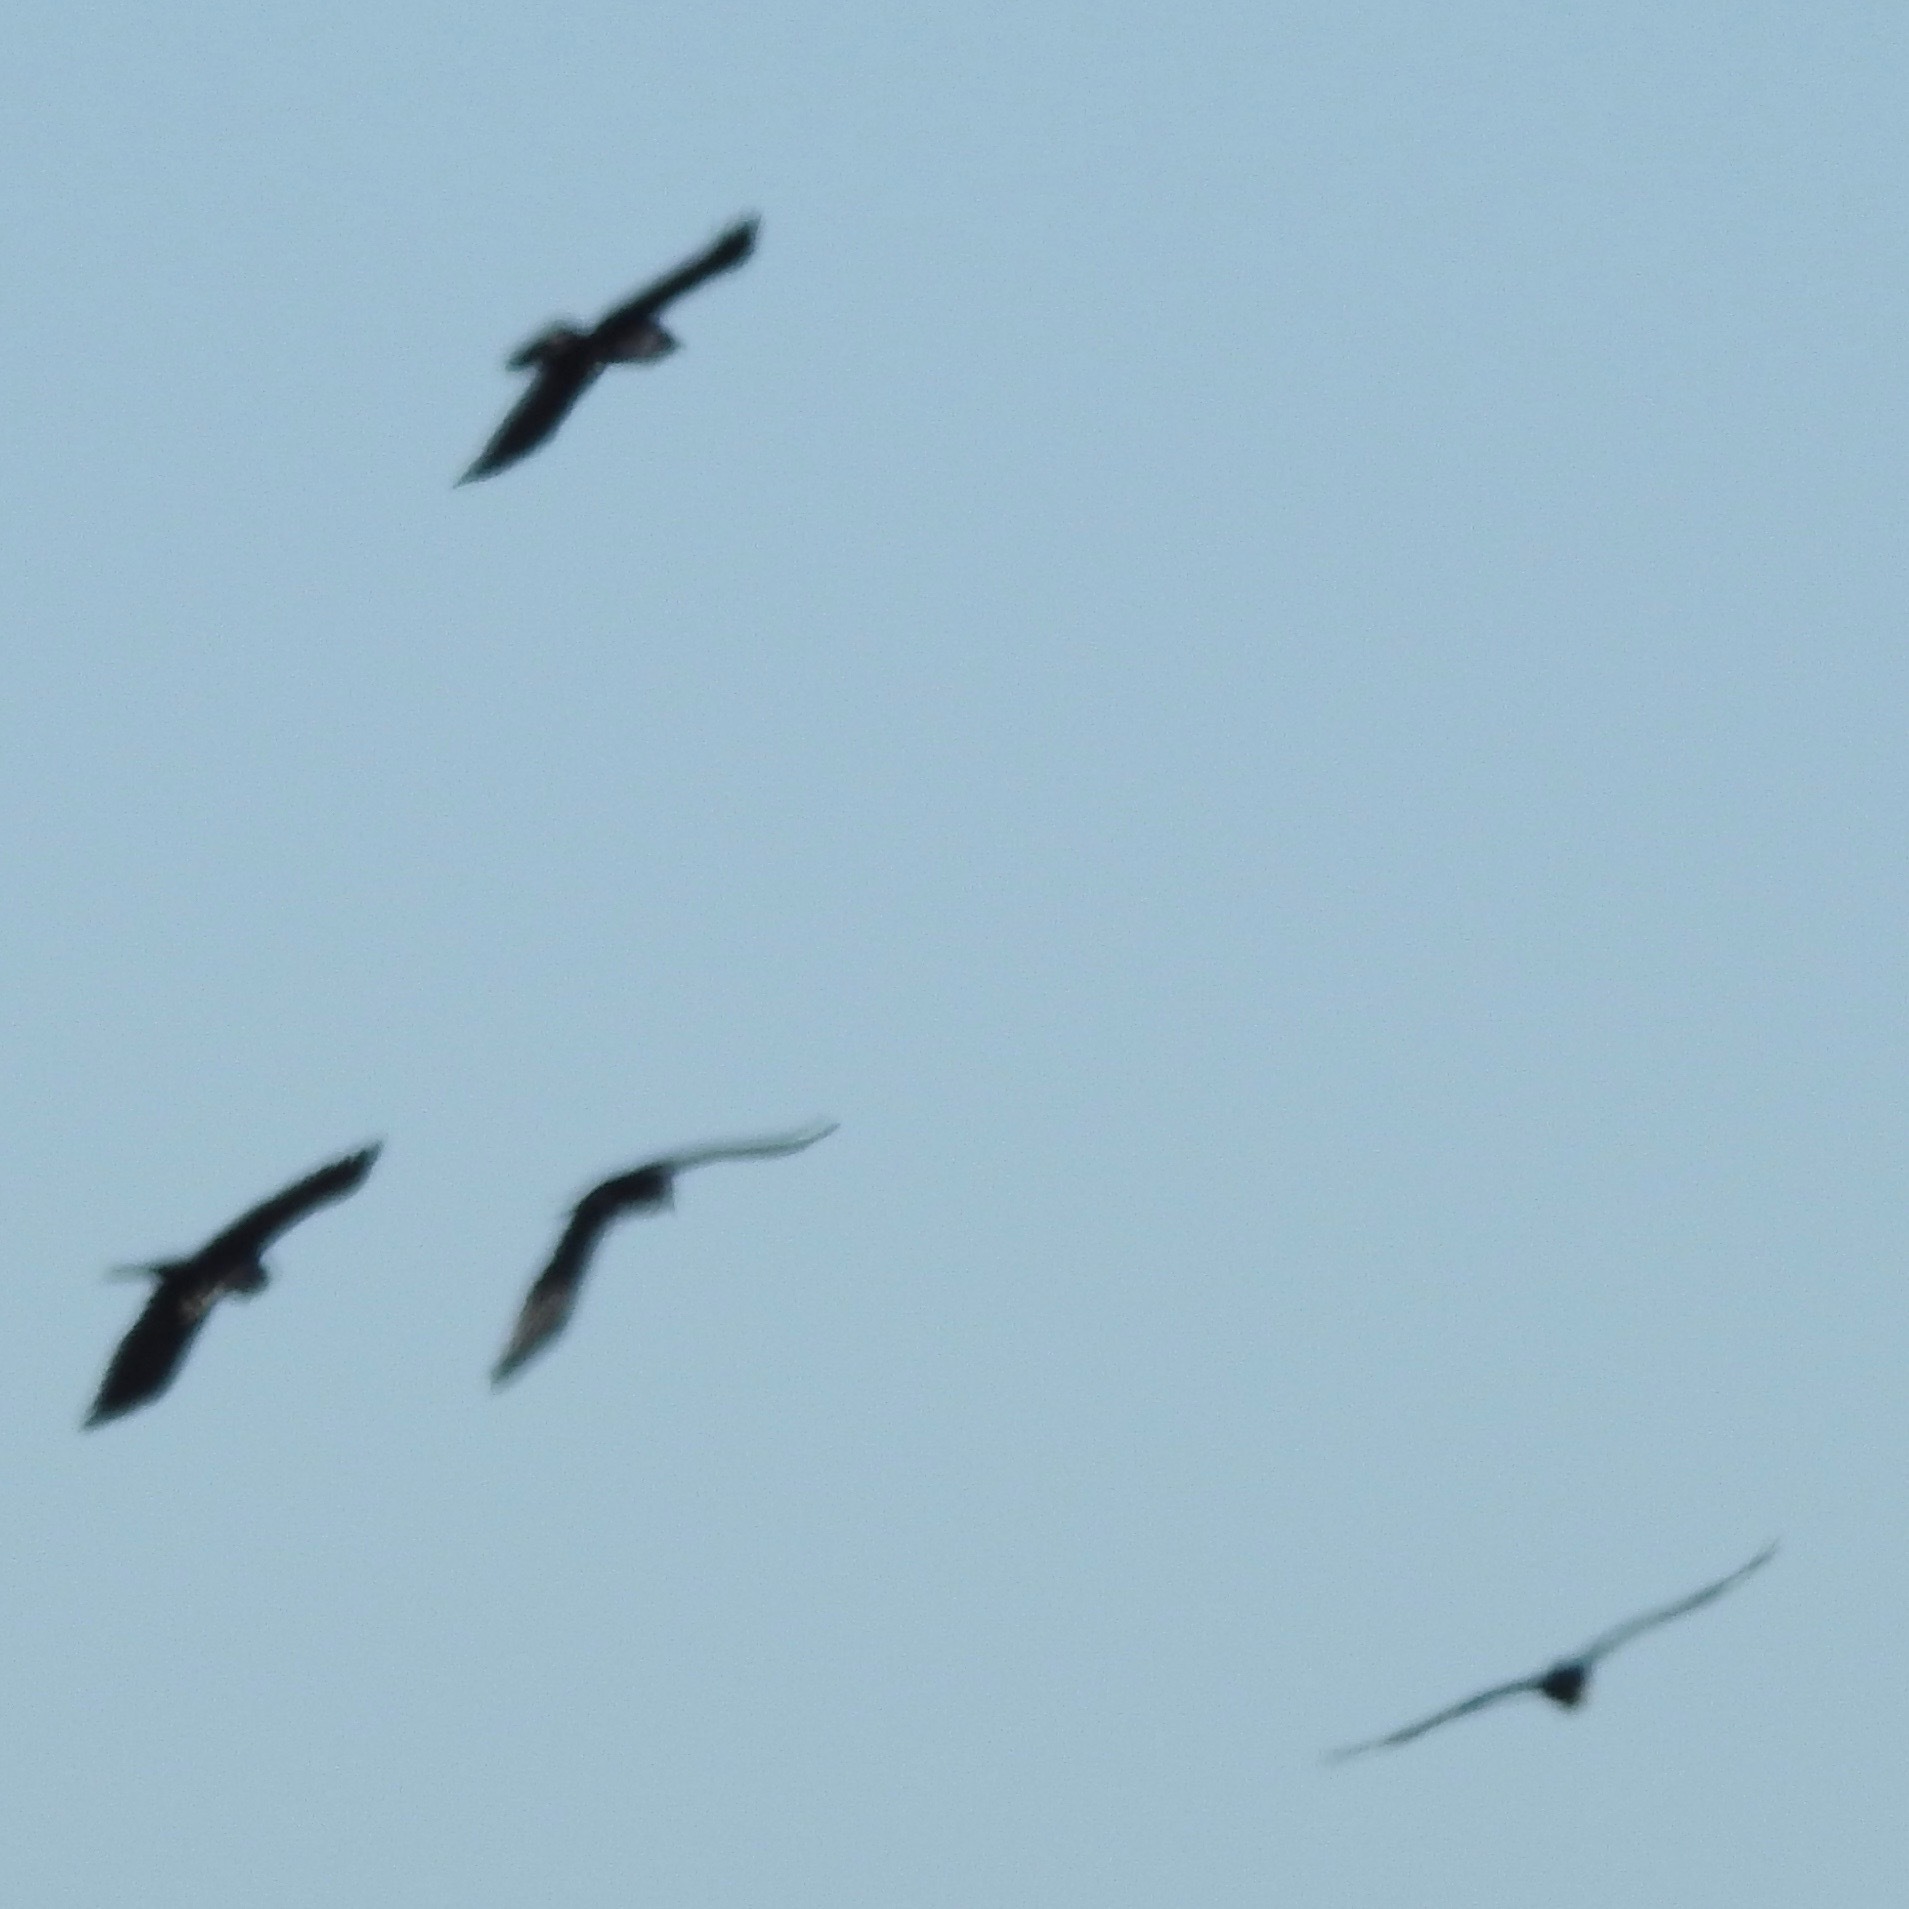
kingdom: Animalia
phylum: Chordata
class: Aves
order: Passeriformes
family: Corvidae
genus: Corvus
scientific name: Corvus corax
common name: Common raven
